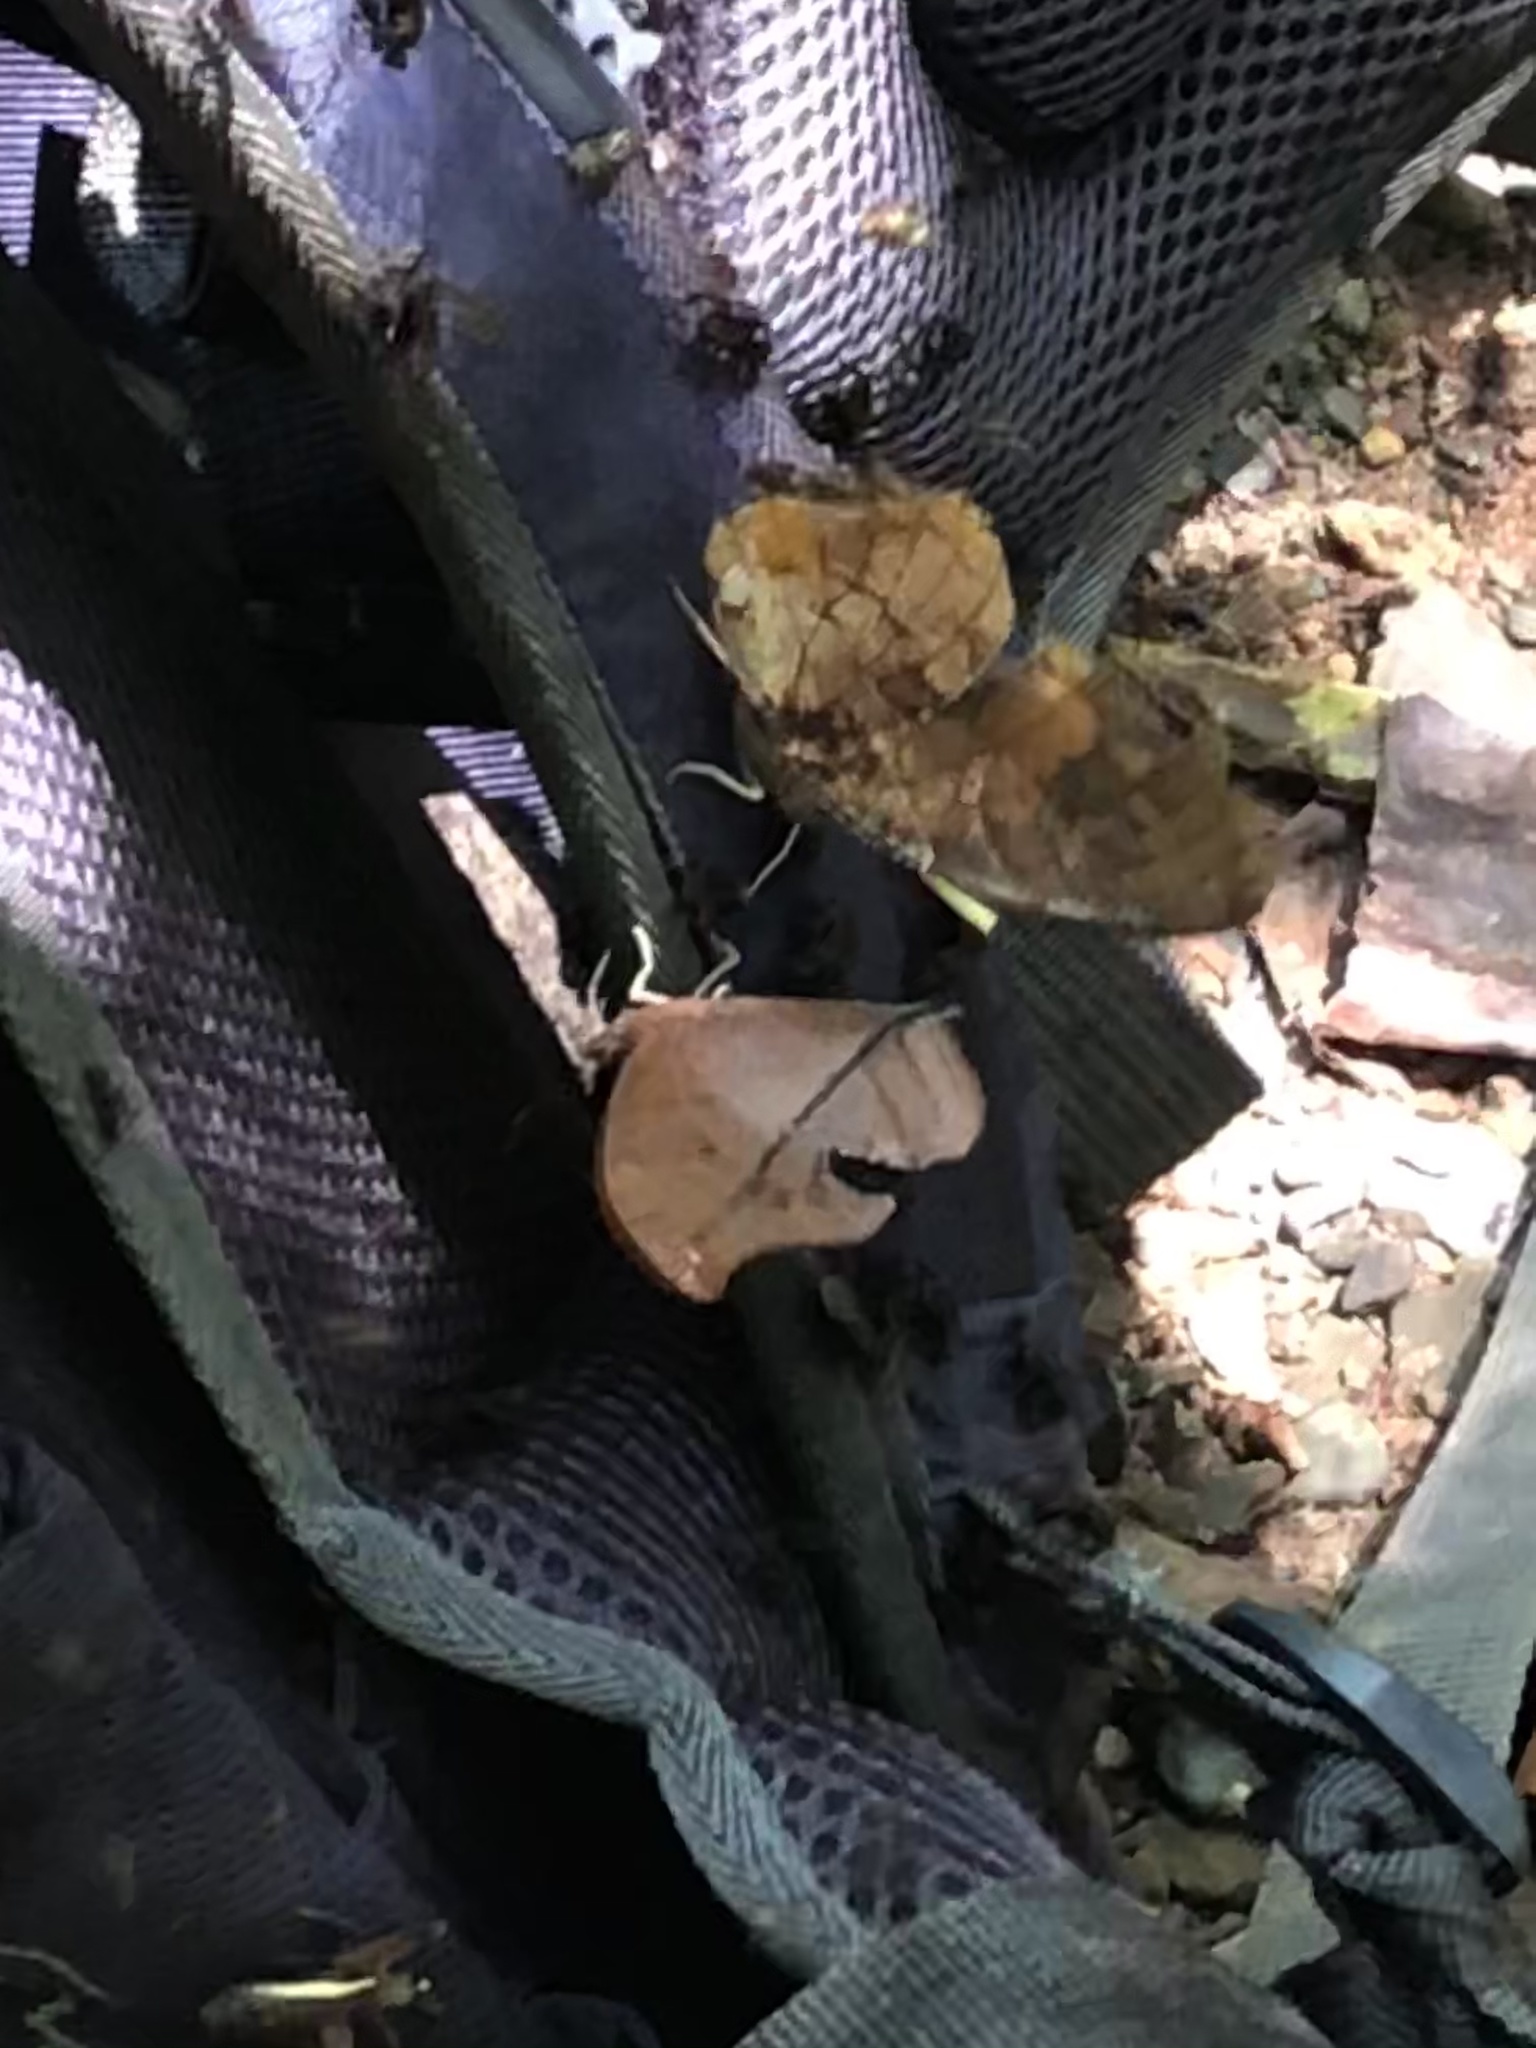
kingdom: Animalia
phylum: Arthropoda
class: Insecta
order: Lepidoptera
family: Nymphalidae
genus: Consul
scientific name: Consul fabius
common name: Tiger leafwing
